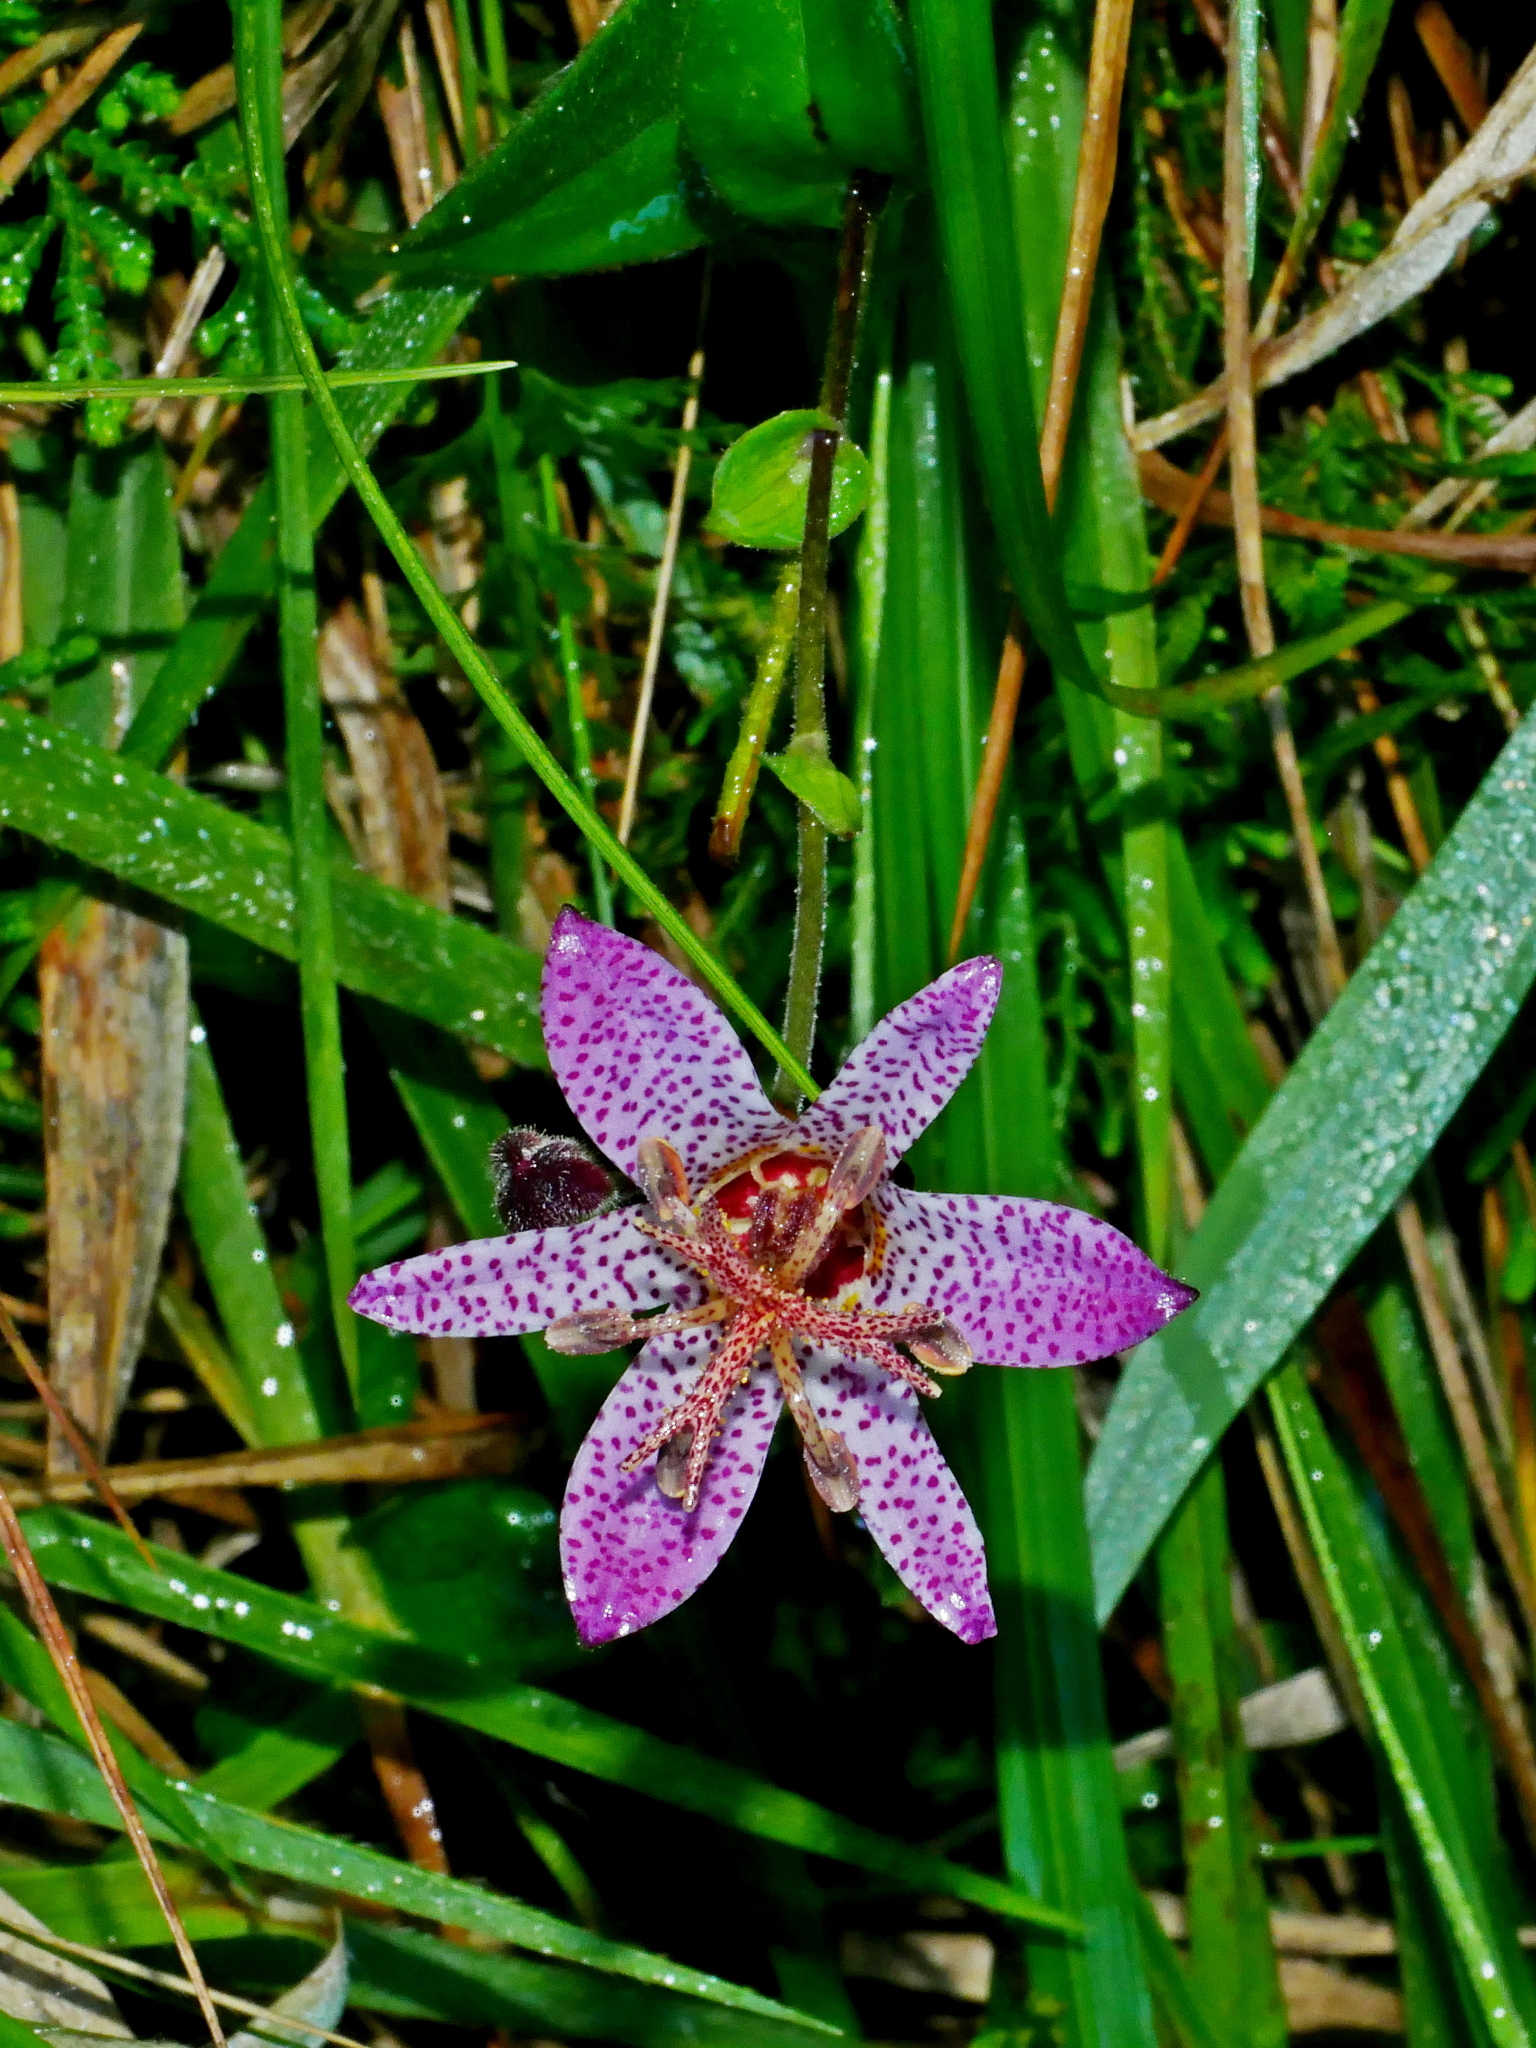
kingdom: Plantae
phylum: Tracheophyta
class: Liliopsida
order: Liliales
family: Liliaceae
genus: Tricyrtis
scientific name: Tricyrtis formosana
